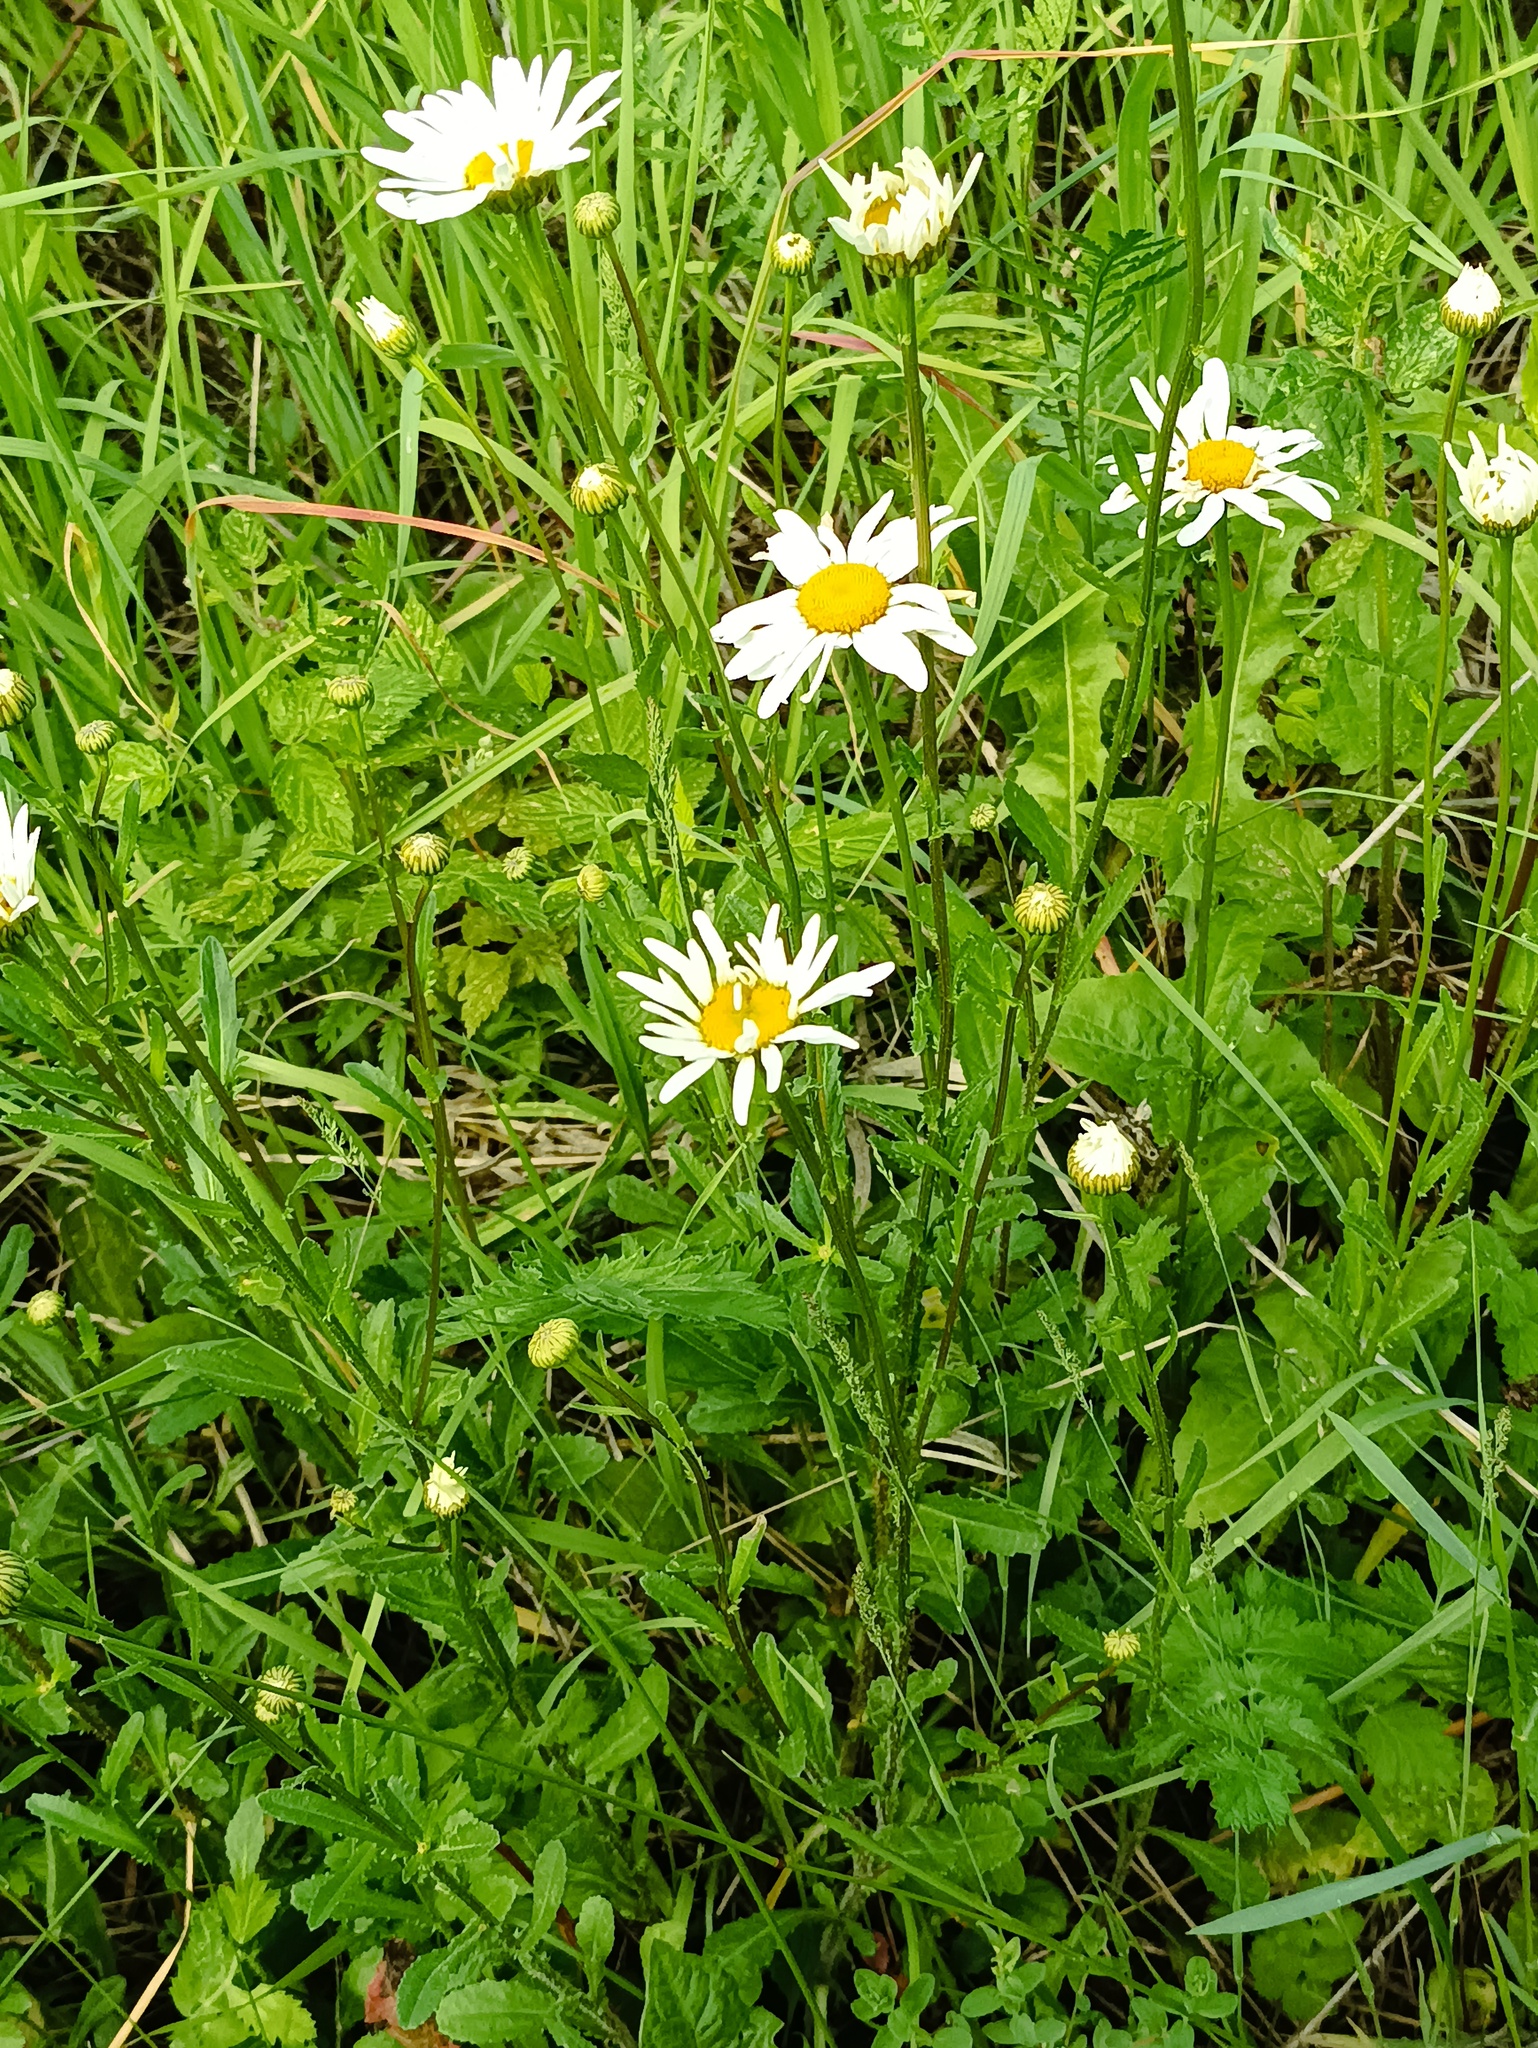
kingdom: Plantae
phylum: Tracheophyta
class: Magnoliopsida
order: Asterales
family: Asteraceae
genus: Leucanthemum
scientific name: Leucanthemum vulgare
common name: Oxeye daisy
